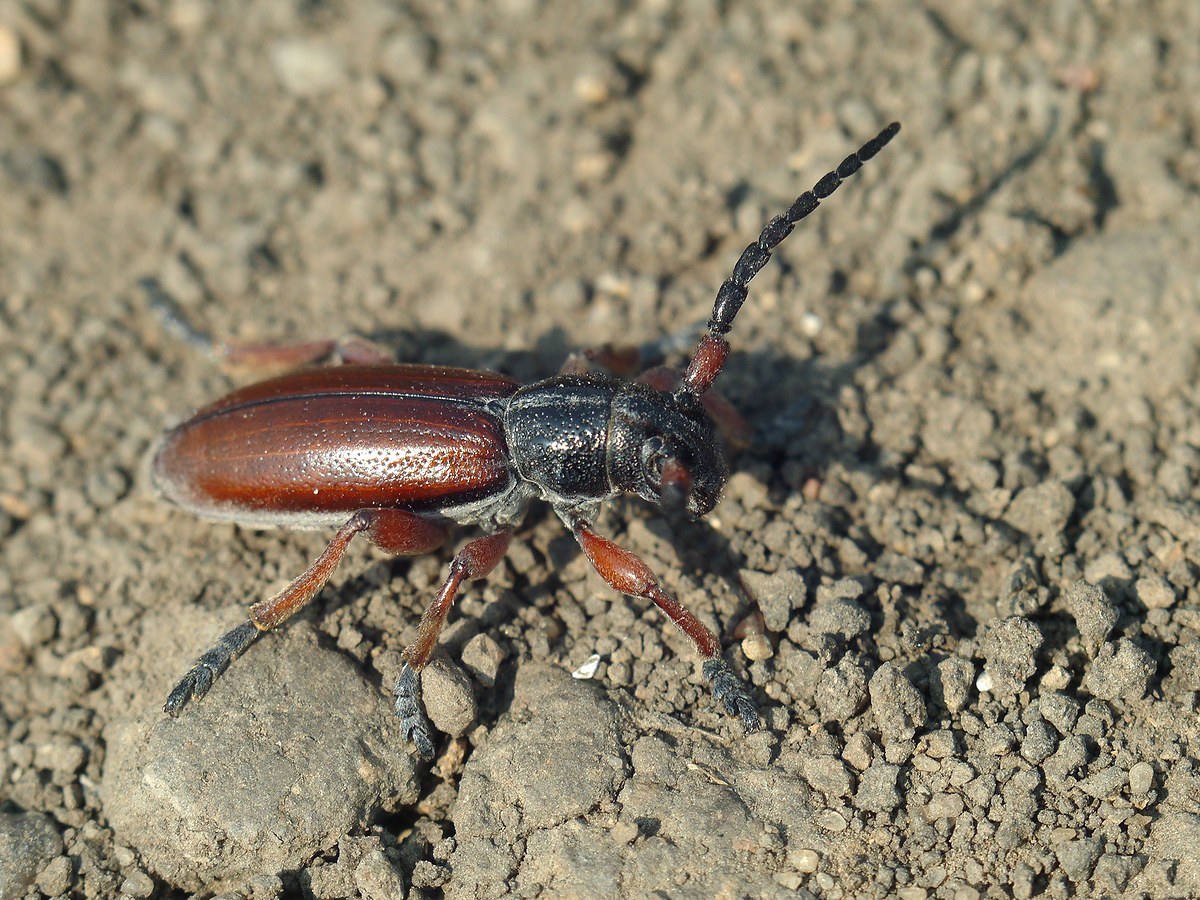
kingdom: Animalia
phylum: Arthropoda
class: Insecta
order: Coleoptera
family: Cerambycidae
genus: Dorcadion
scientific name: Dorcadion fulvum
